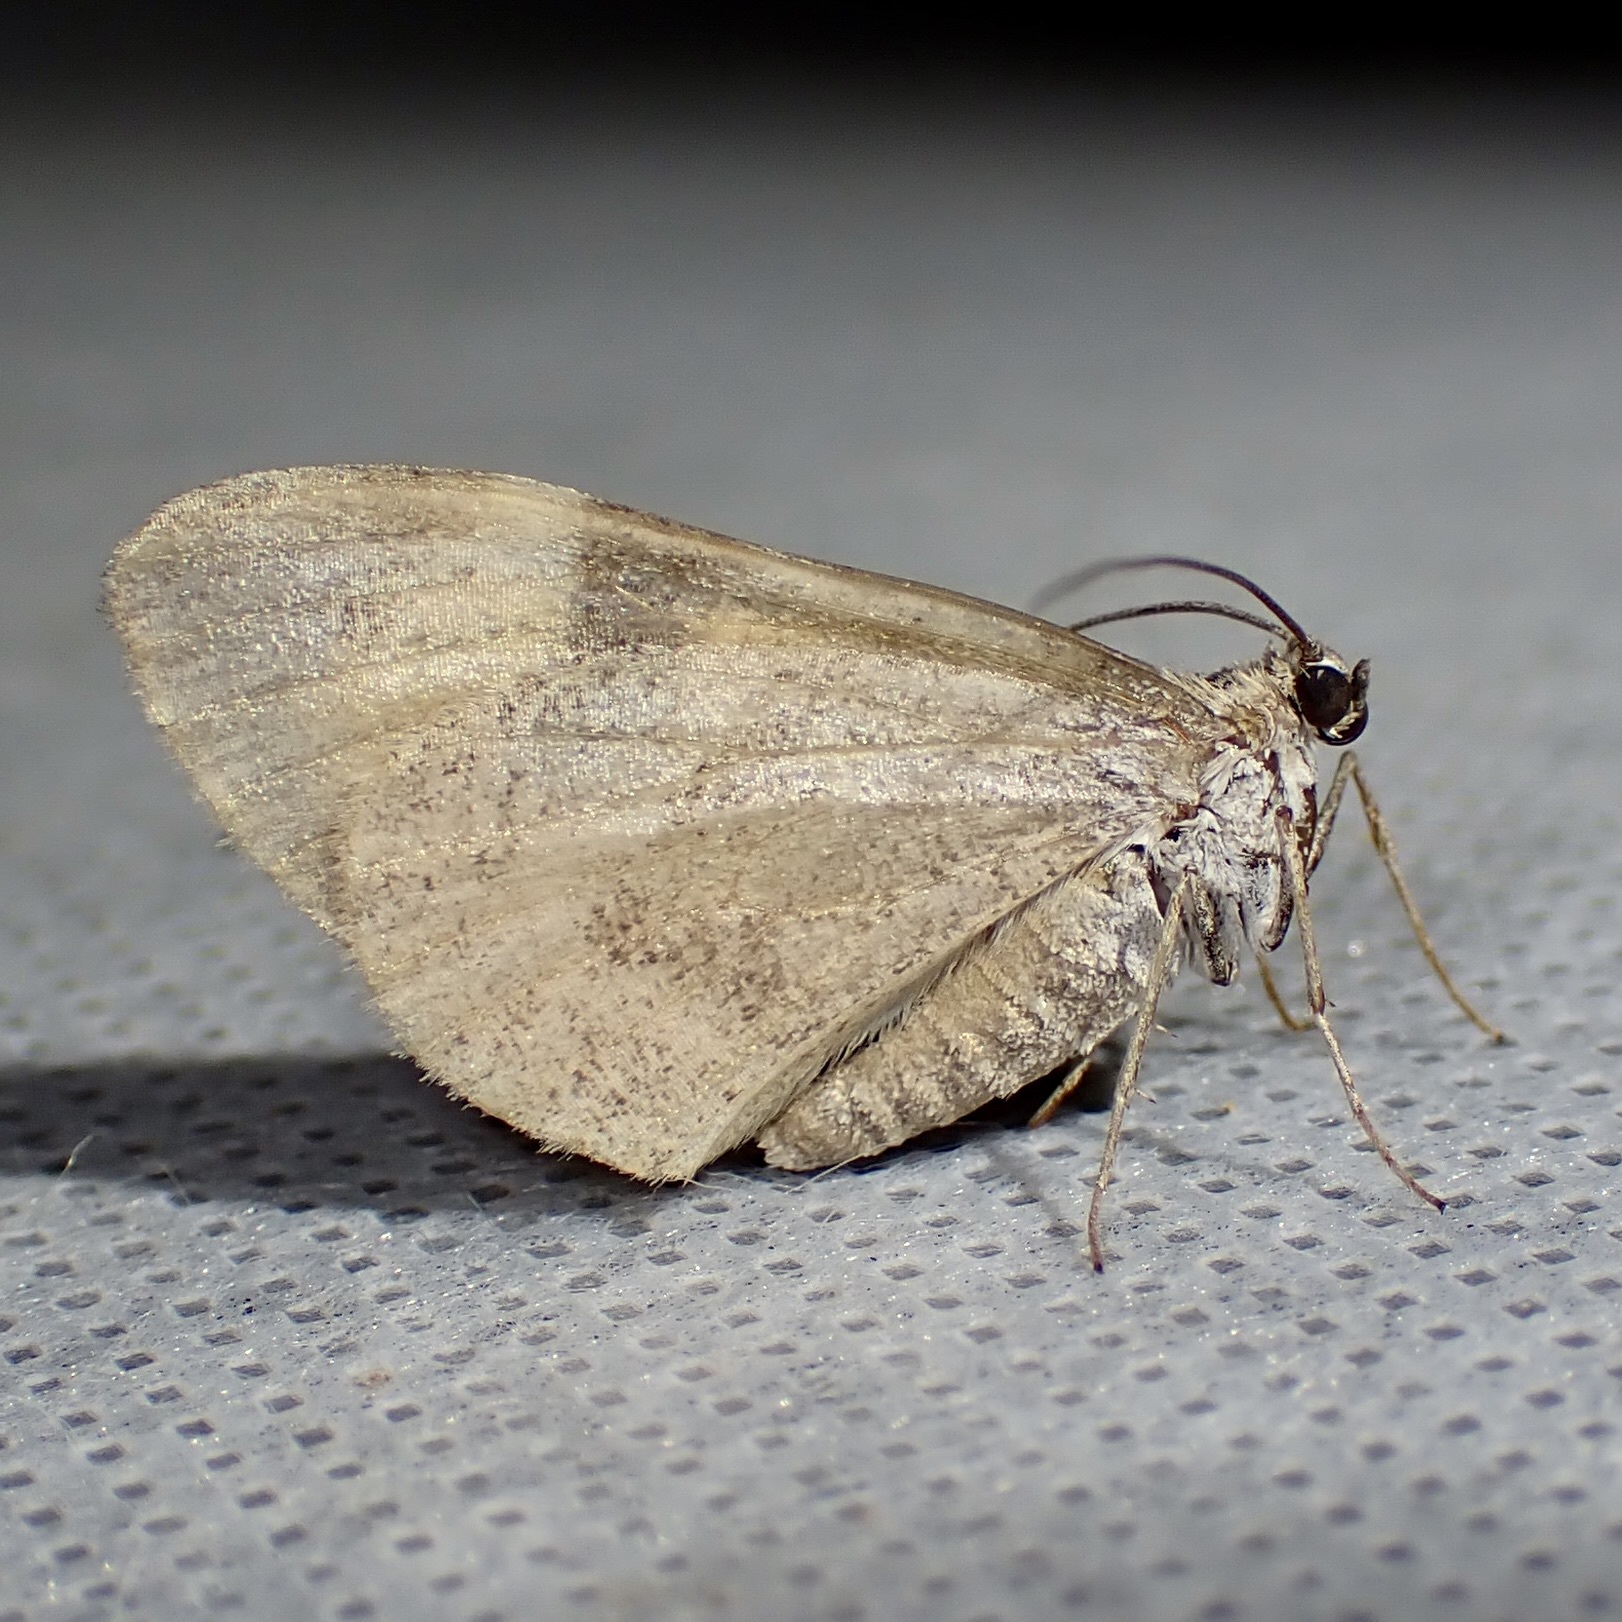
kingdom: Animalia
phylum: Arthropoda
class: Insecta
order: Lepidoptera
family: Geometridae
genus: Stamnodes
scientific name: Stamnodes seiferti
